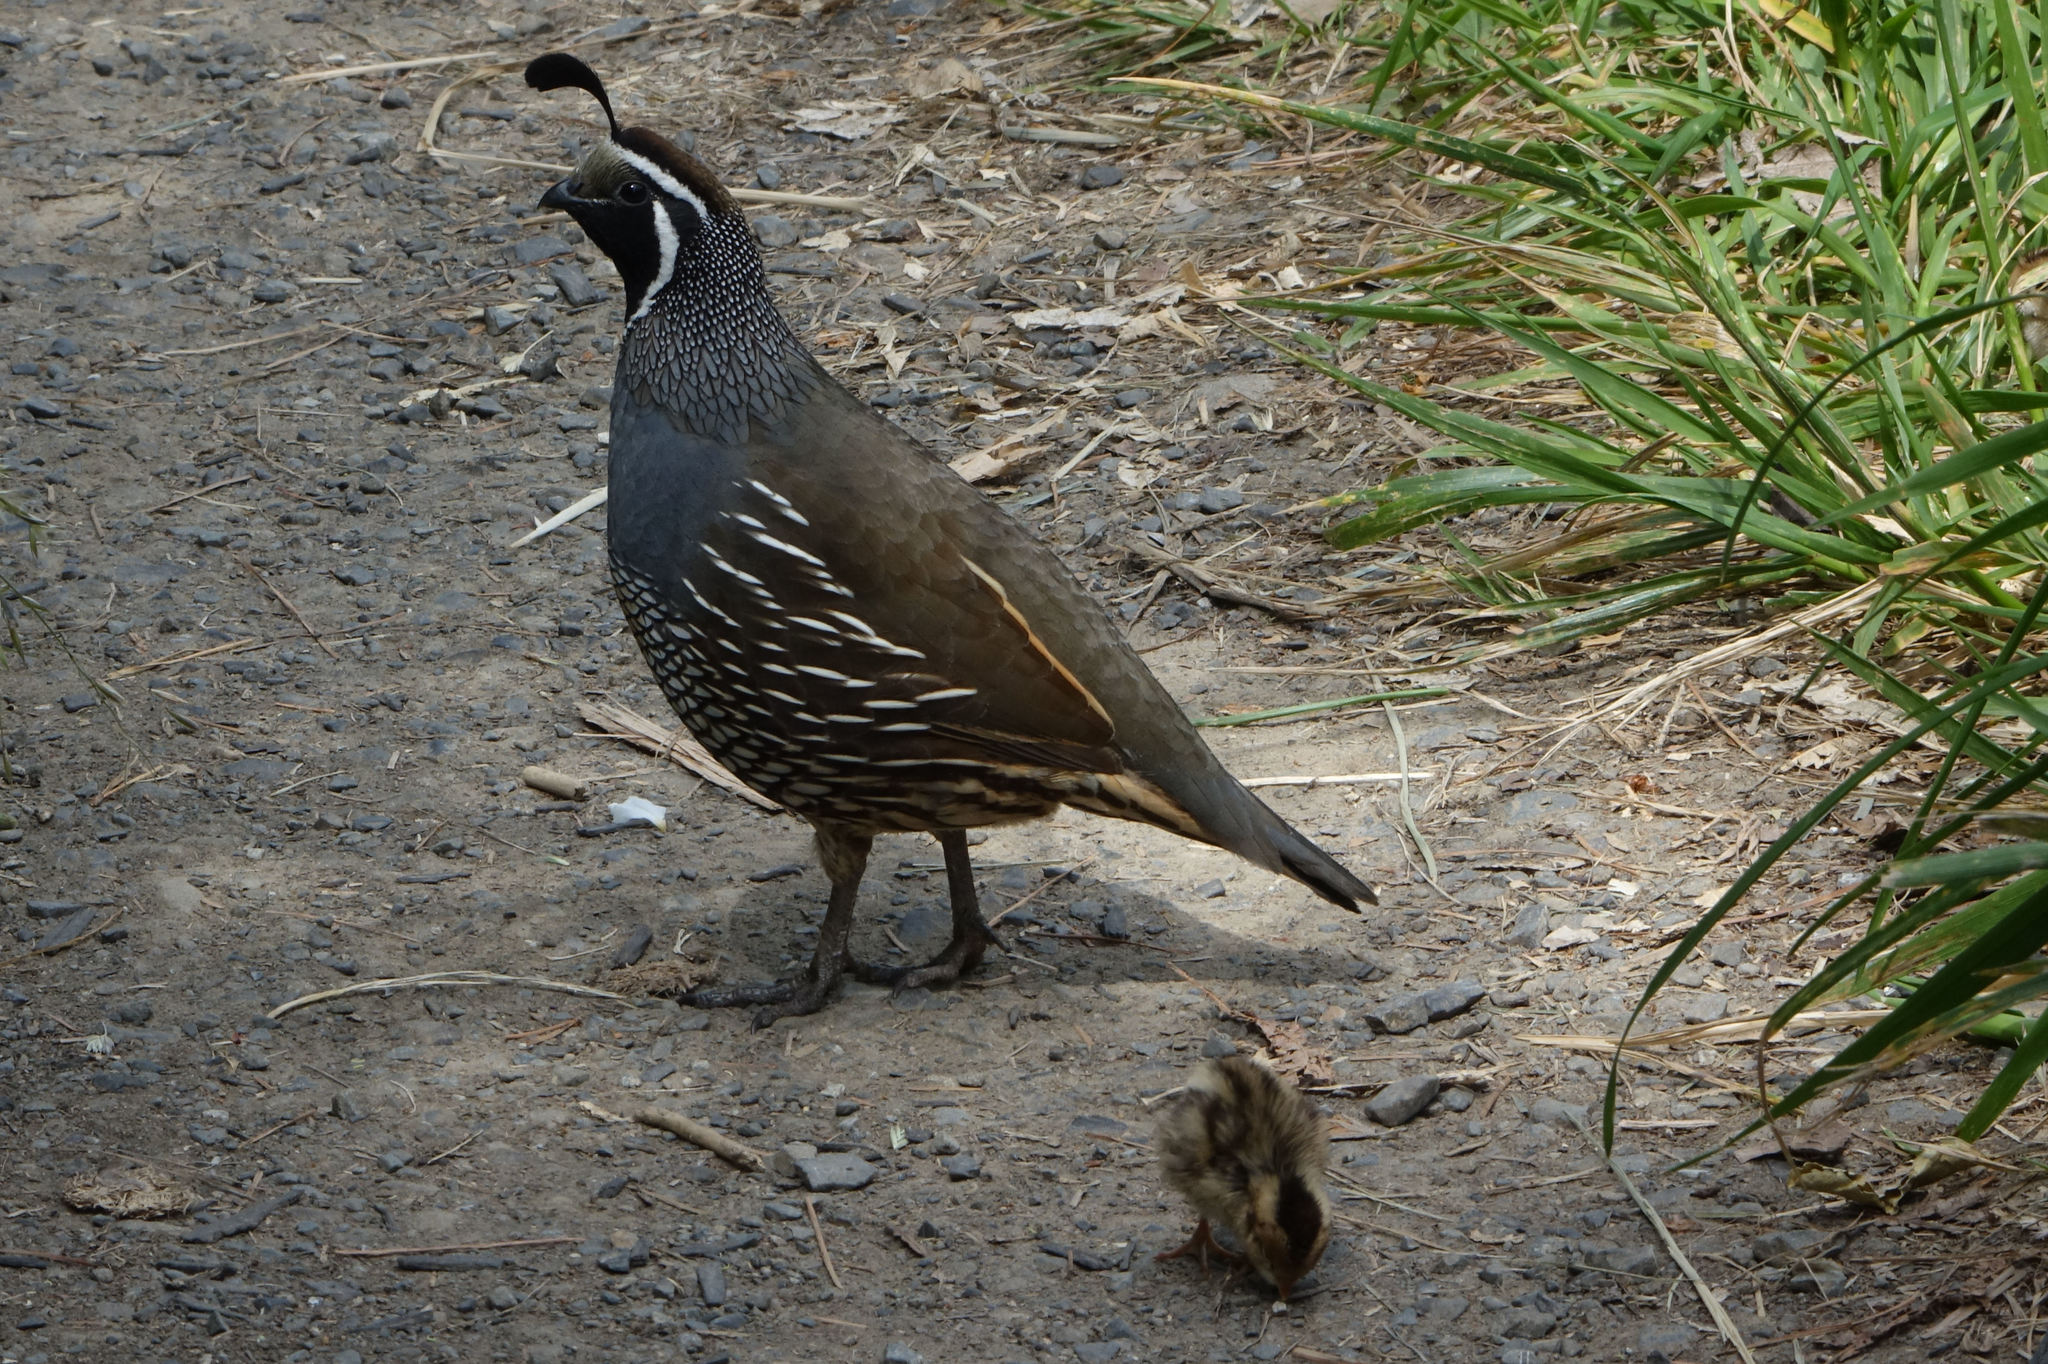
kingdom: Animalia
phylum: Chordata
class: Aves
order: Galliformes
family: Odontophoridae
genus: Callipepla
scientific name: Callipepla californica
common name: California quail
